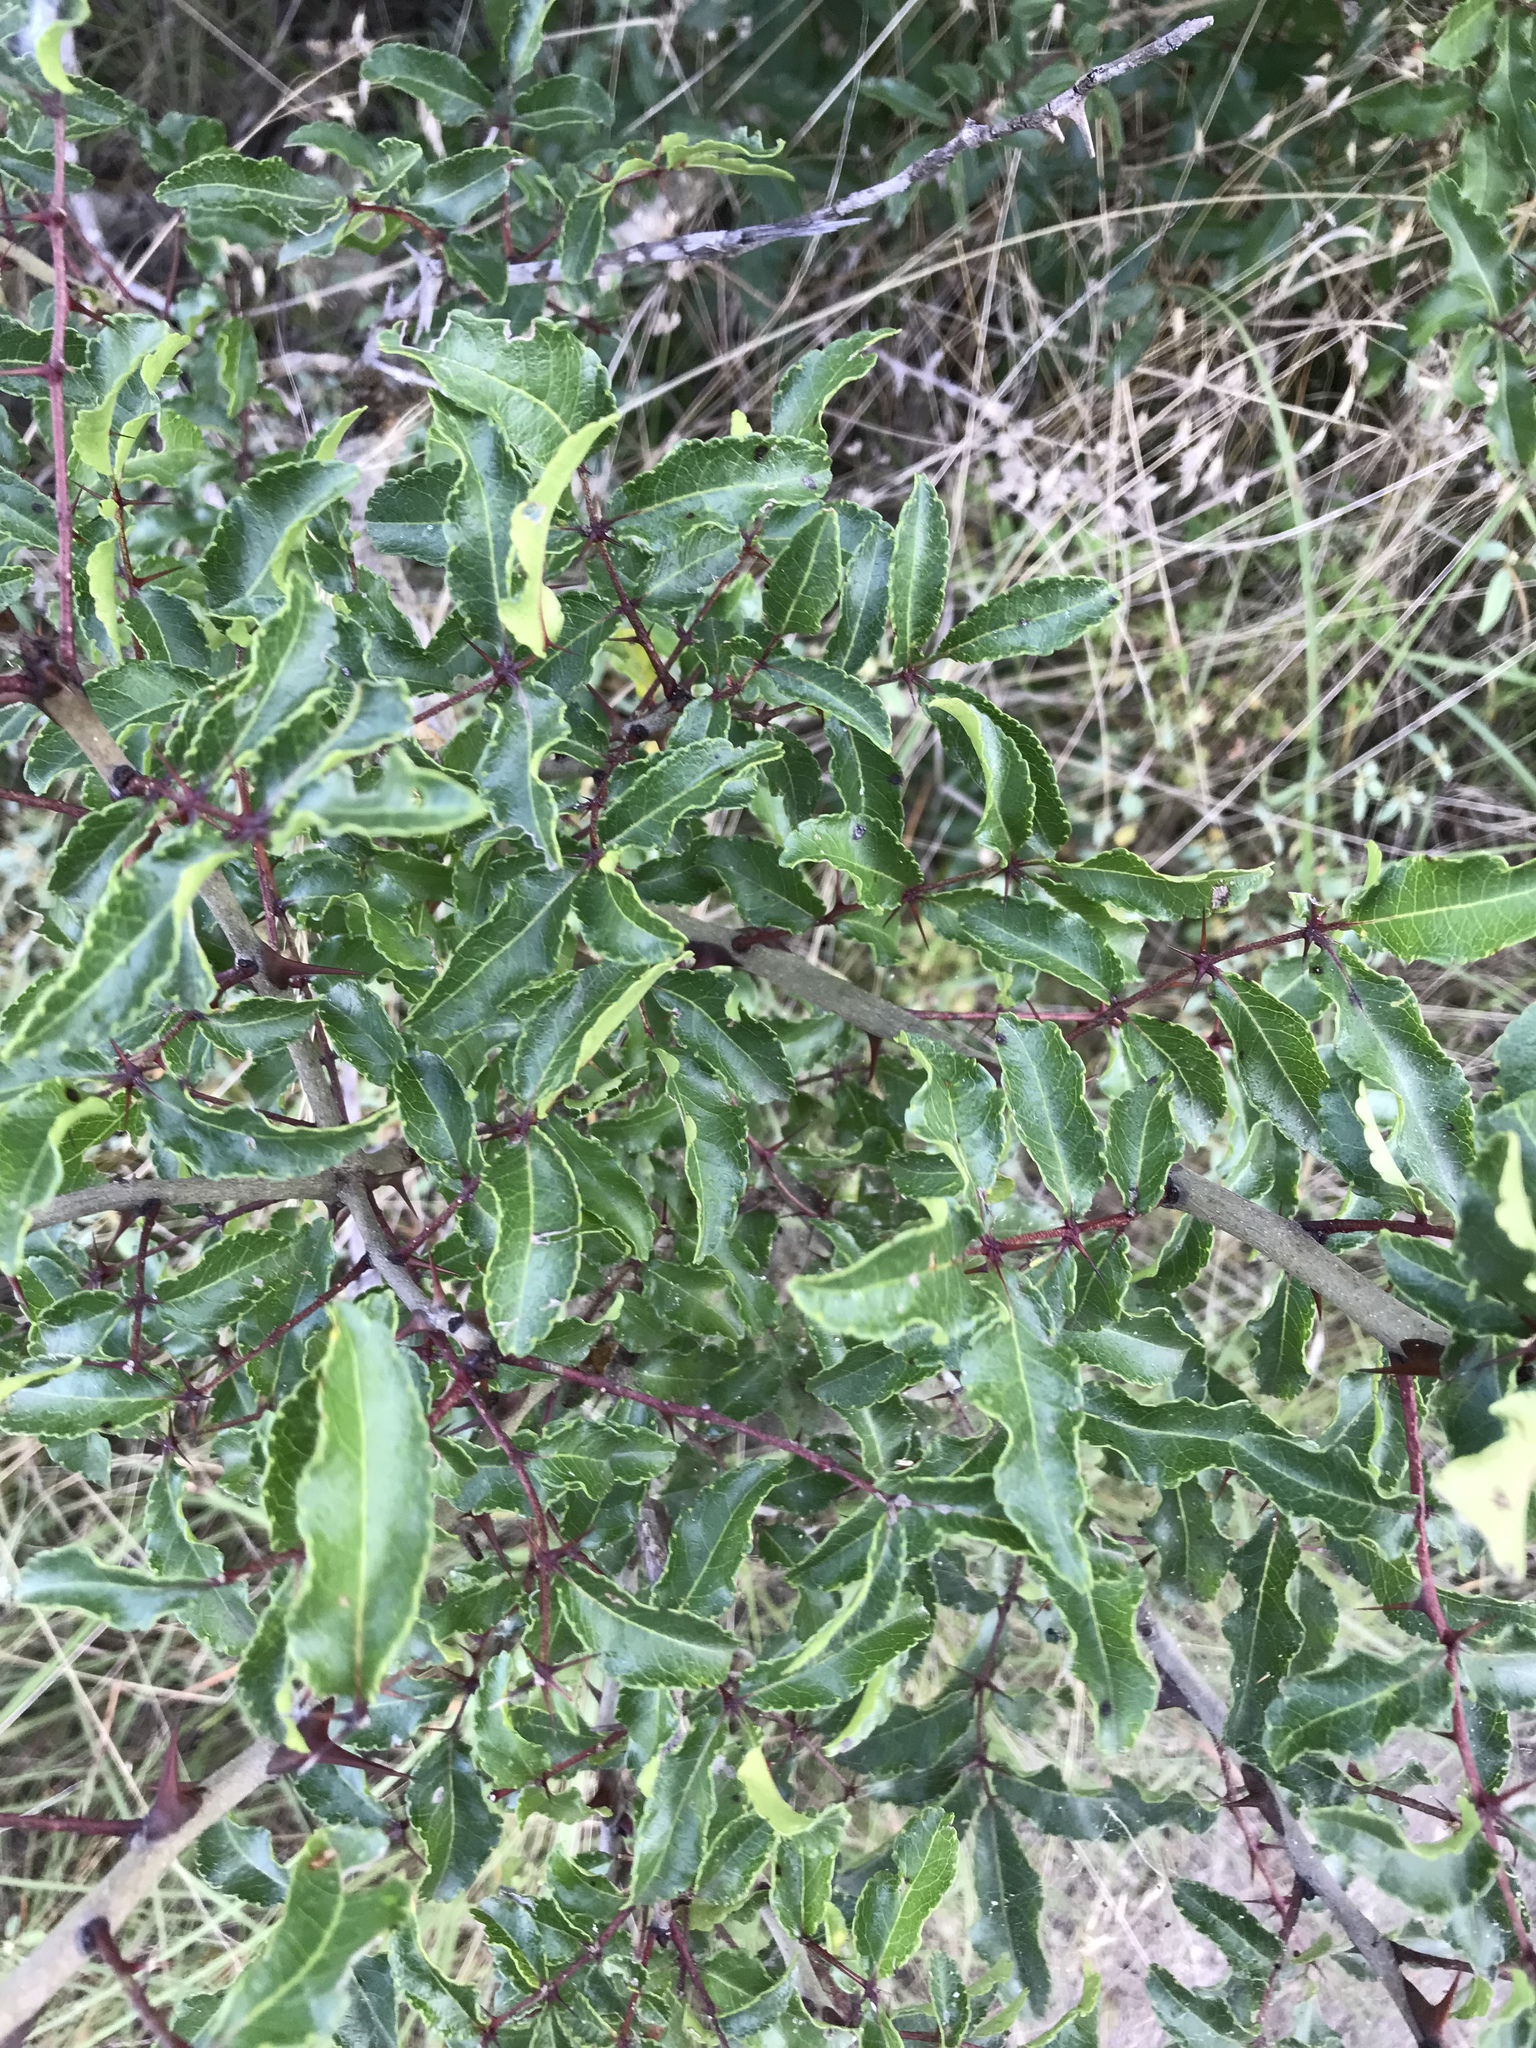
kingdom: Plantae
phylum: Tracheophyta
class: Magnoliopsida
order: Sapindales
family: Rutaceae
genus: Zanthoxylum
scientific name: Zanthoxylum clava-herculis
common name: Hercules'-club
